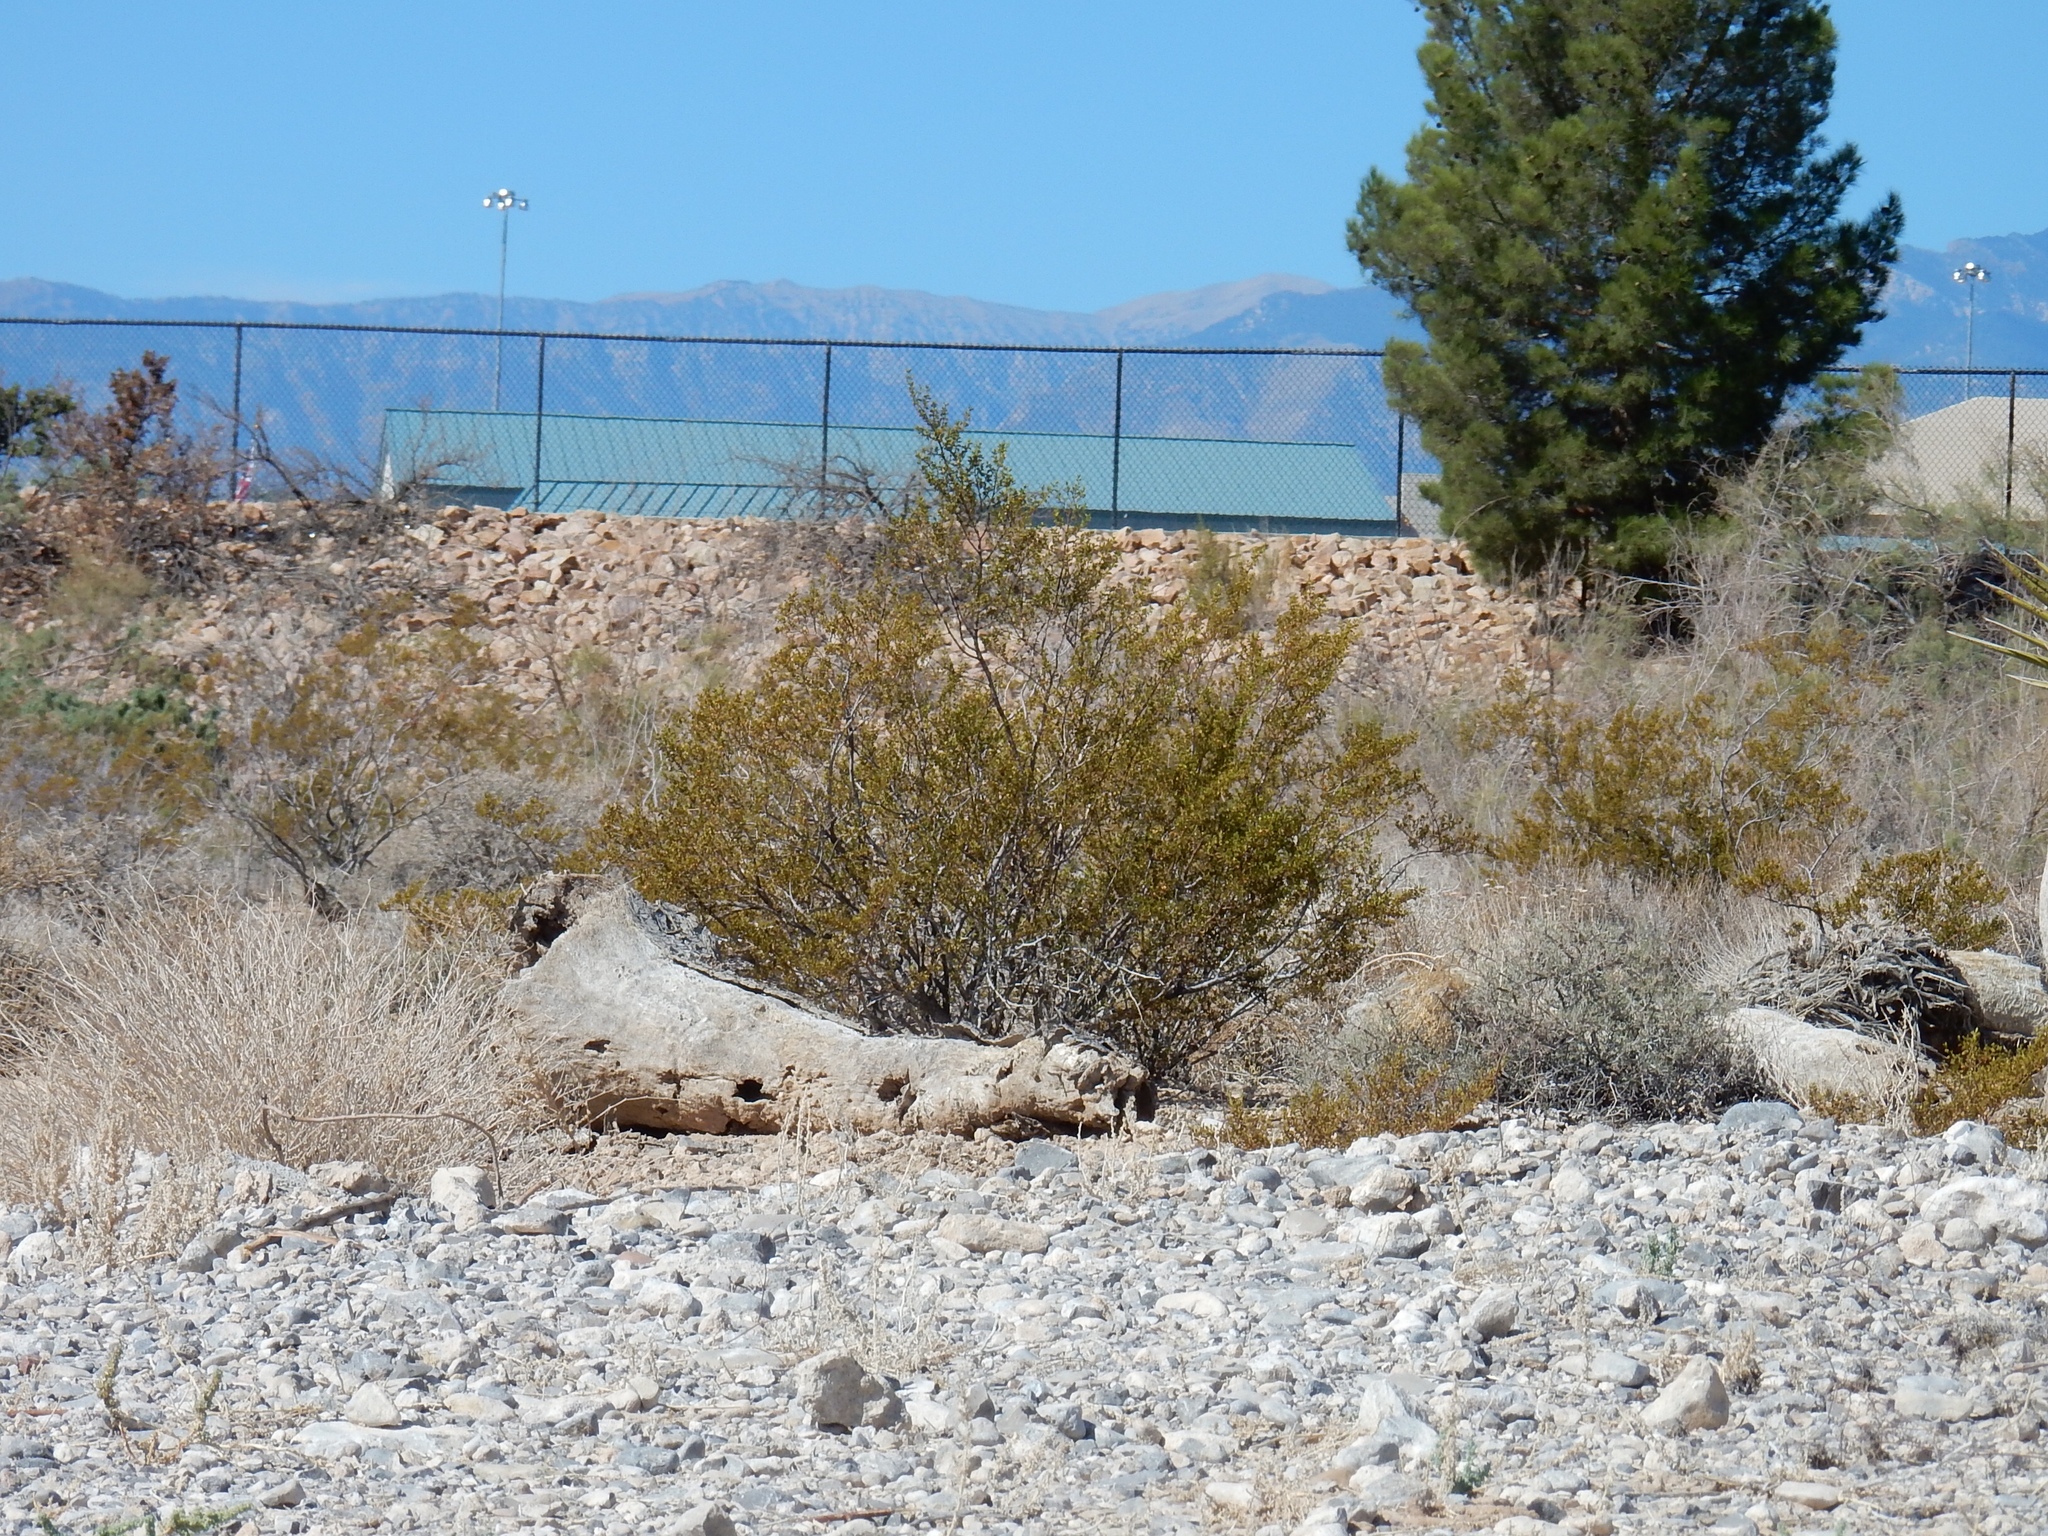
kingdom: Plantae
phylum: Tracheophyta
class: Magnoliopsida
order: Zygophyllales
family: Zygophyllaceae
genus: Larrea
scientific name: Larrea tridentata
